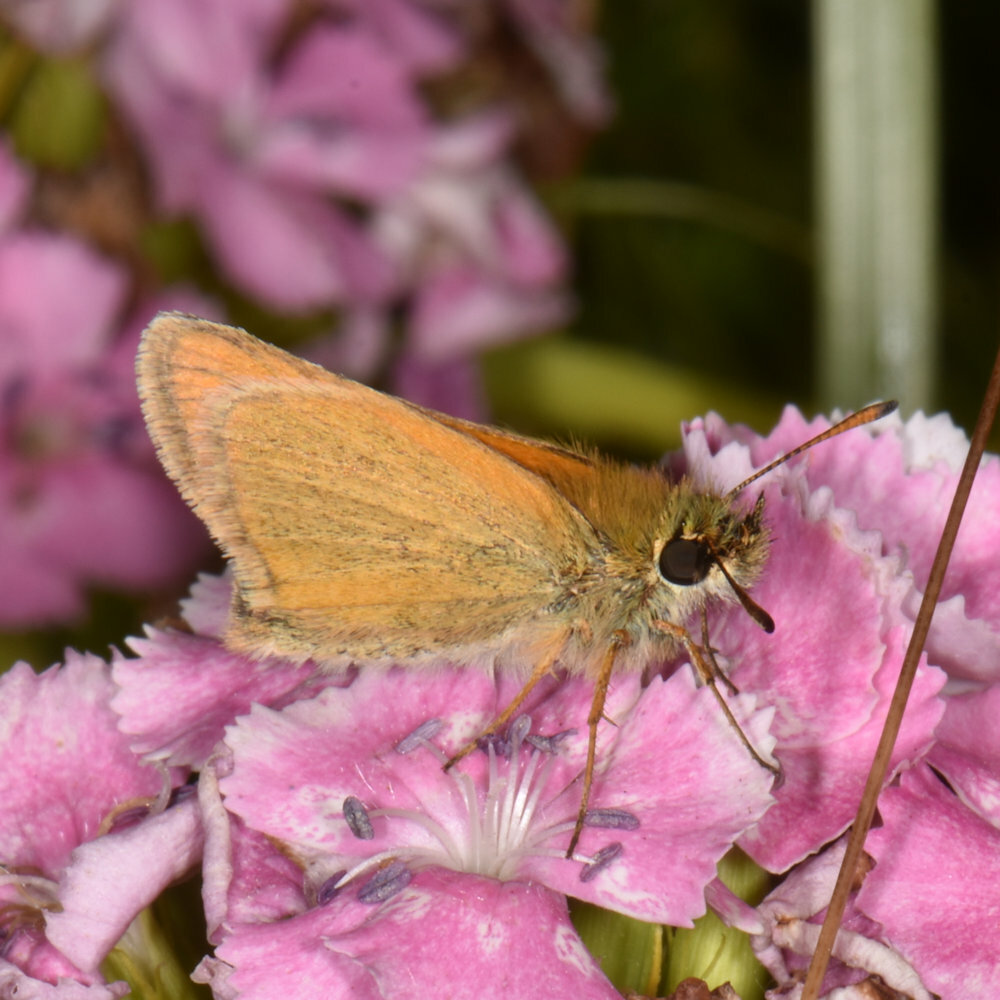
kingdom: Animalia
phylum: Arthropoda
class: Insecta
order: Lepidoptera
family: Hesperiidae
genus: Thymelicus
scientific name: Thymelicus lineola
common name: Essex skipper
